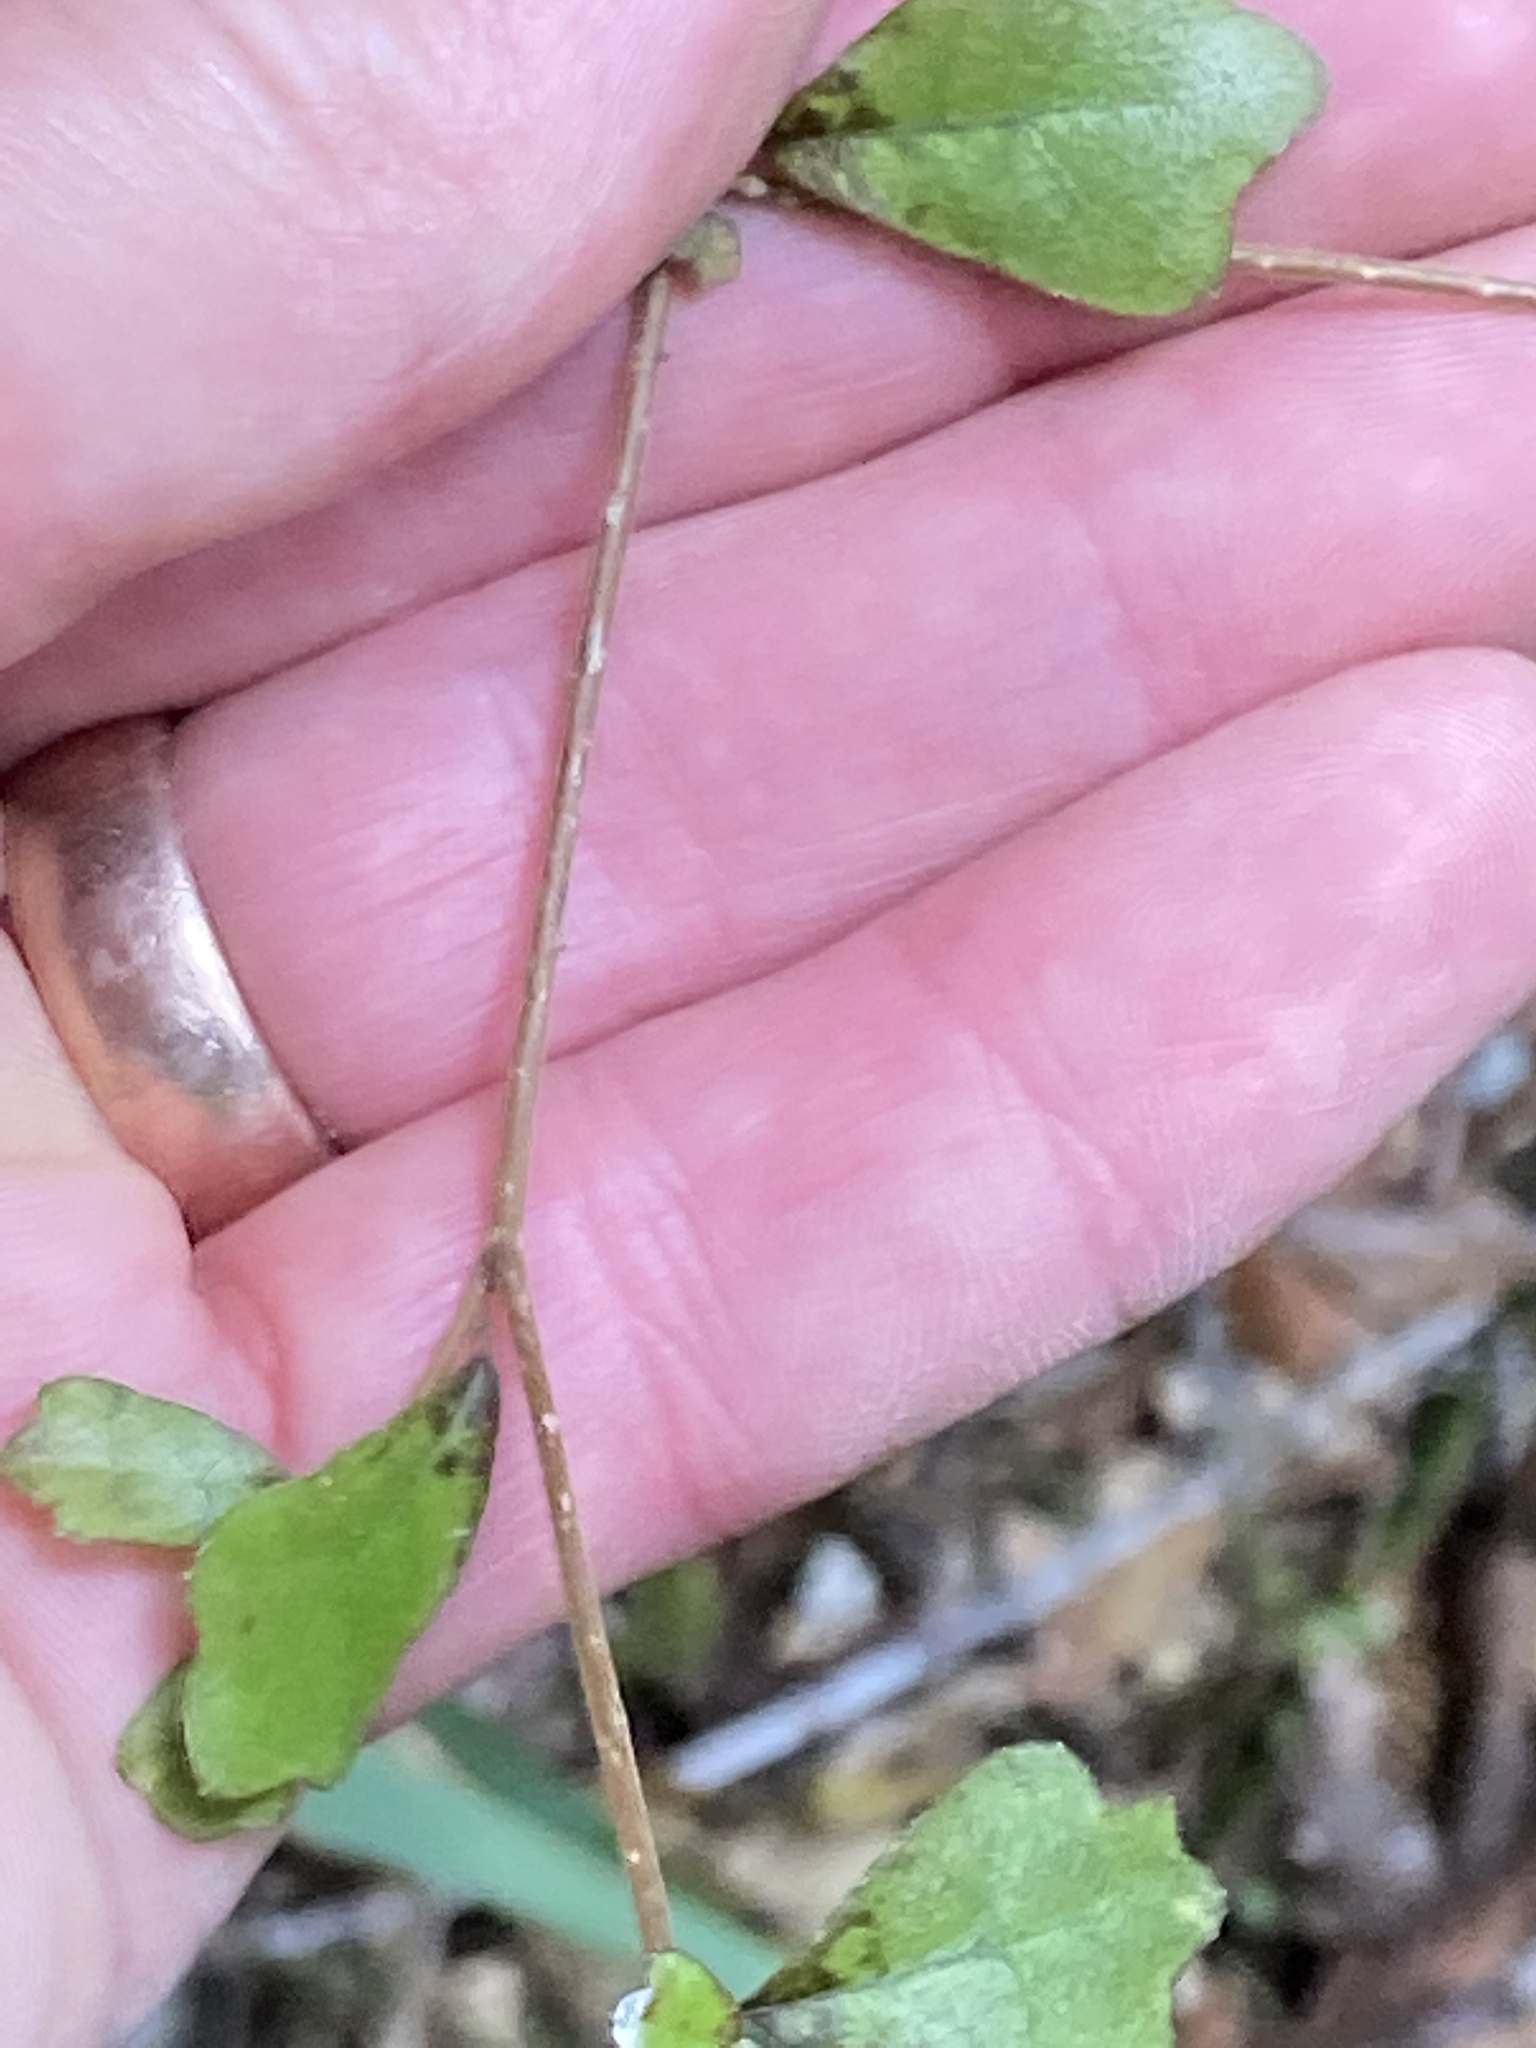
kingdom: Plantae
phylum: Tracheophyta
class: Magnoliopsida
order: Apiales
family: Pennantiaceae
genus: Pennantia
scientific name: Pennantia corymbosa
